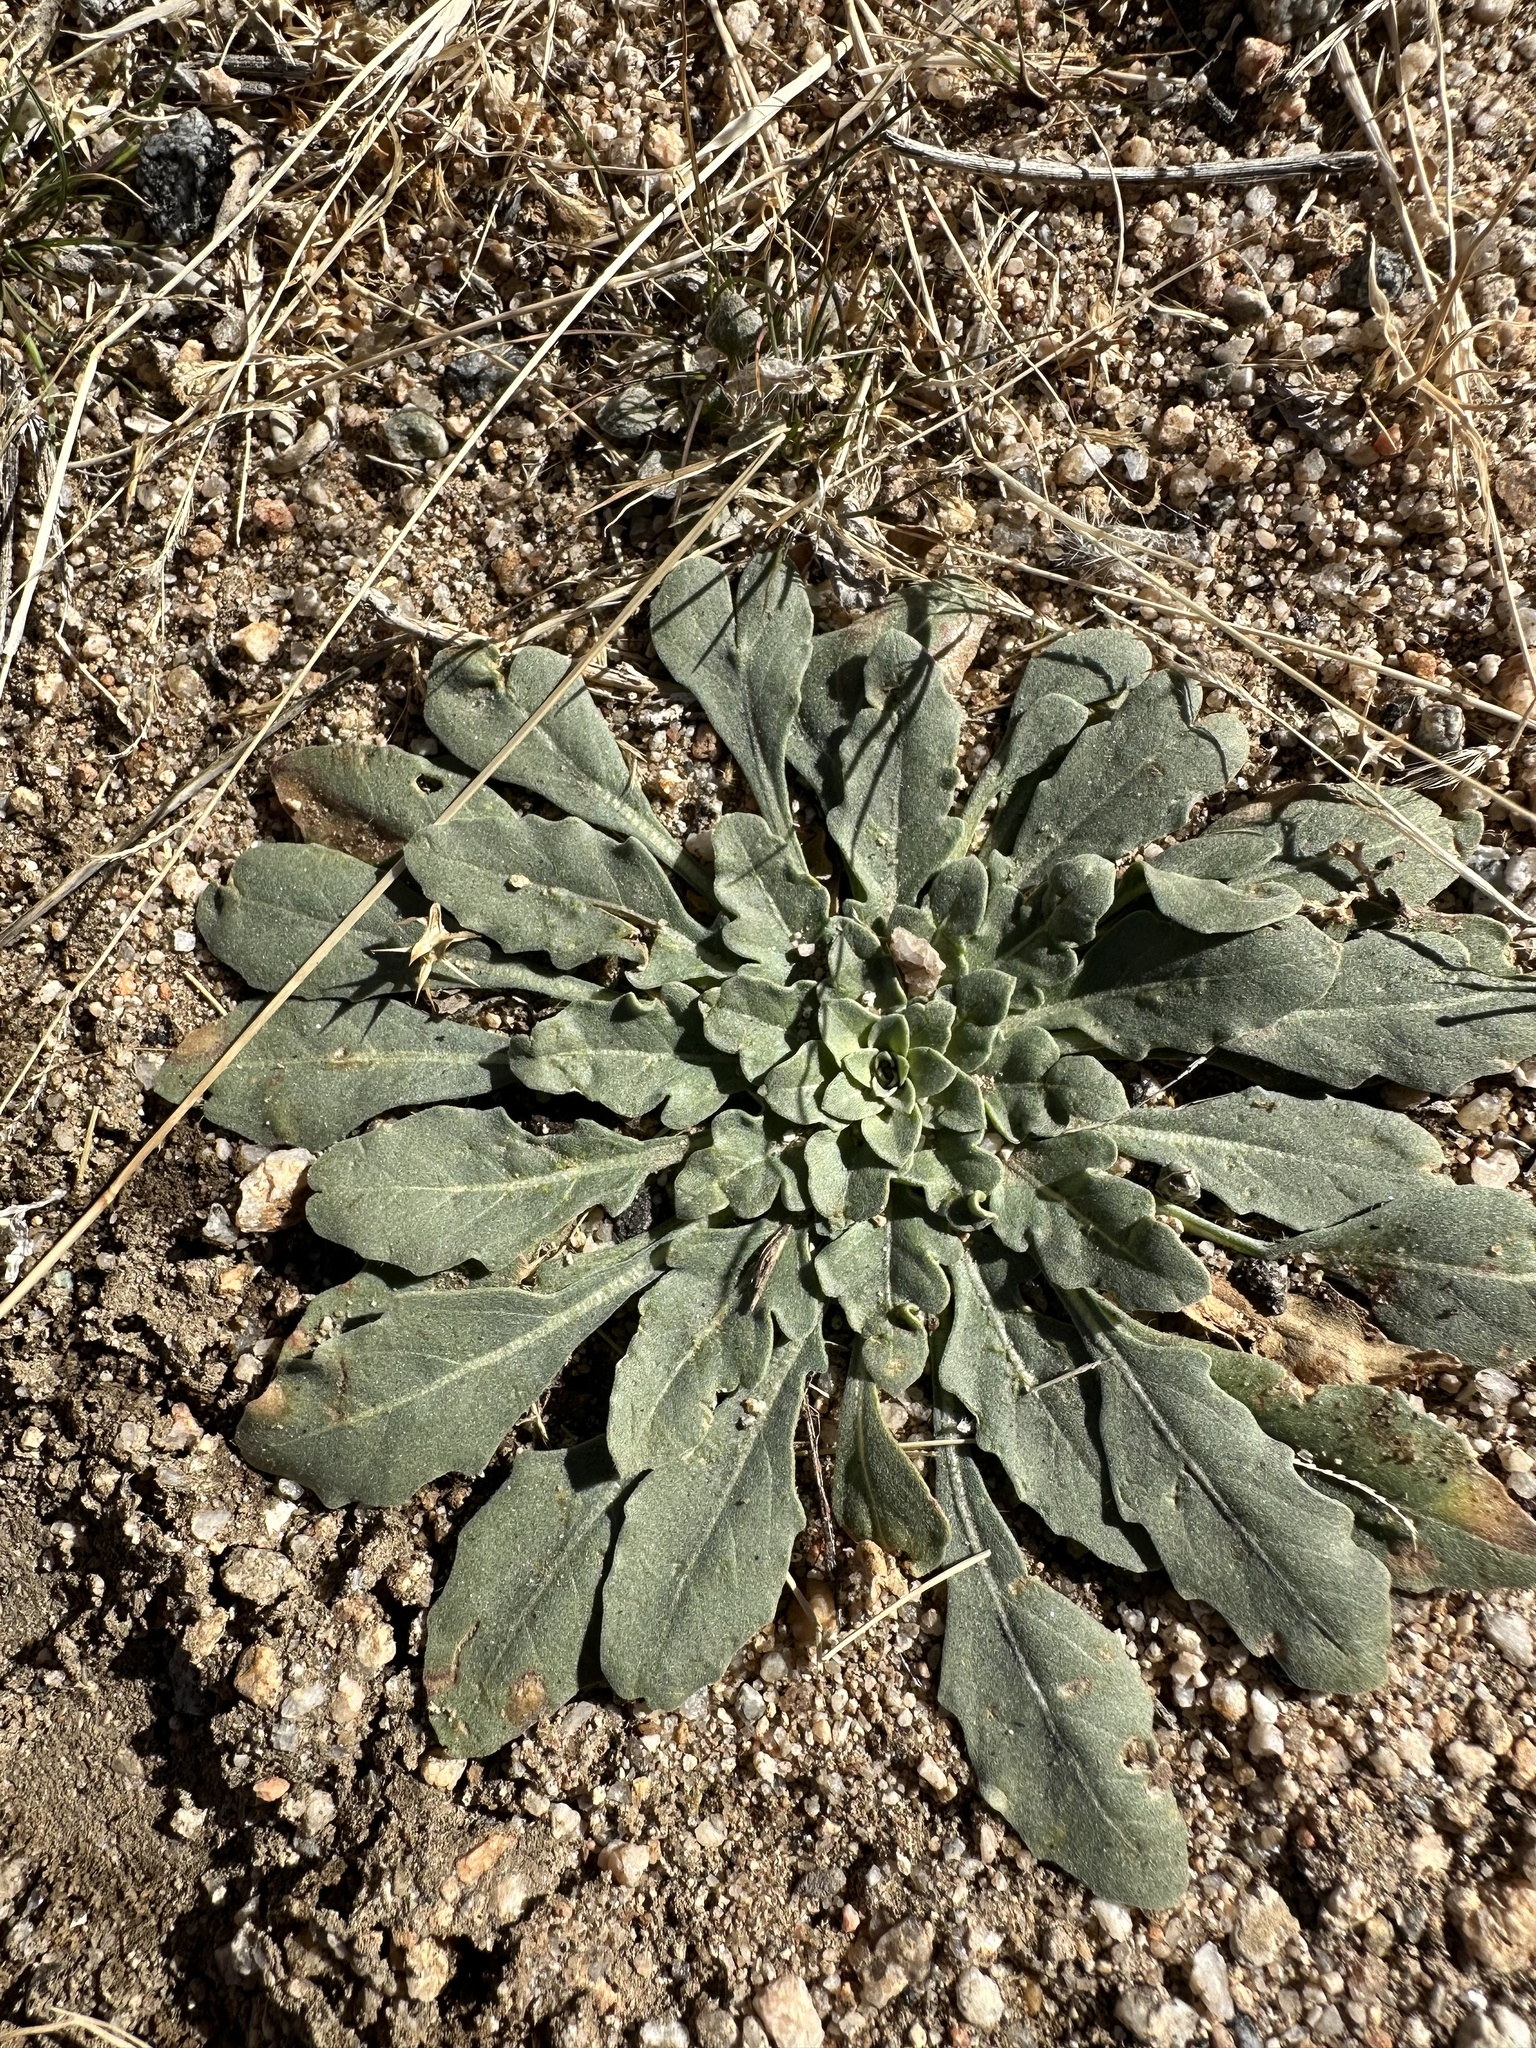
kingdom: Plantae
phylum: Tracheophyta
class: Magnoliopsida
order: Myrtales
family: Onagraceae
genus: Oenothera
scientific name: Oenothera californica
